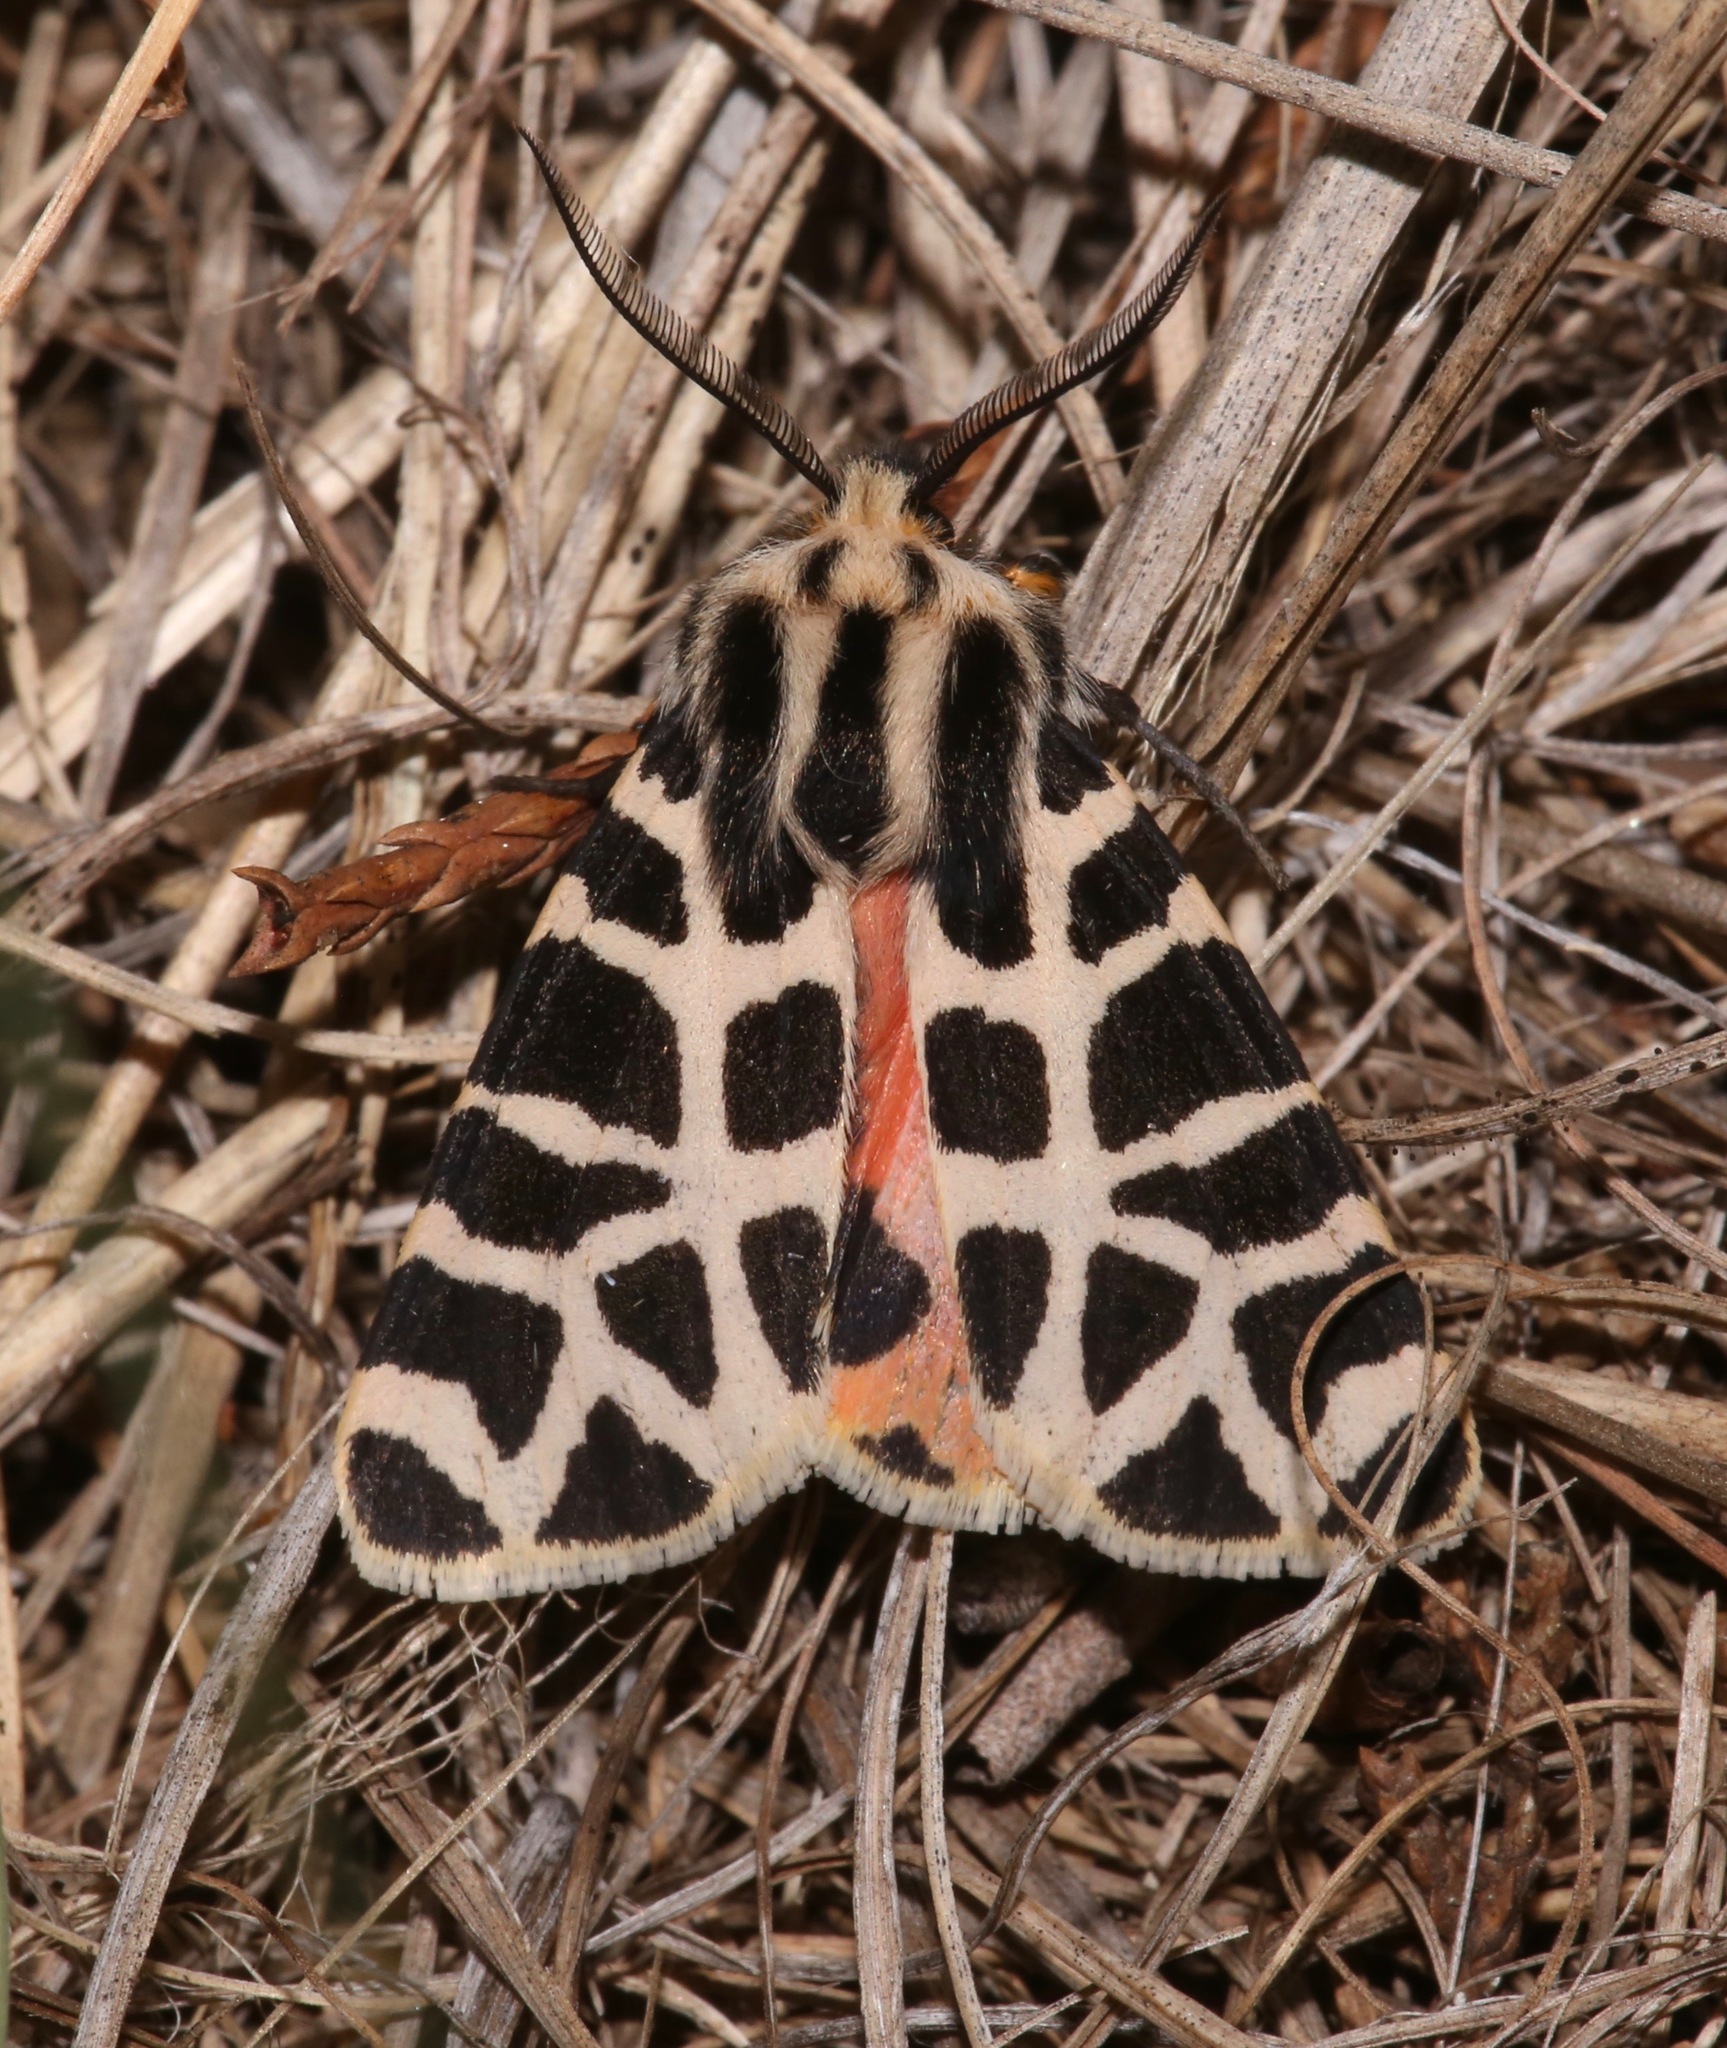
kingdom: Animalia
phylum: Arthropoda
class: Insecta
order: Lepidoptera
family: Erebidae
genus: Apantesis
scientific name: Apantesis incorrupta
